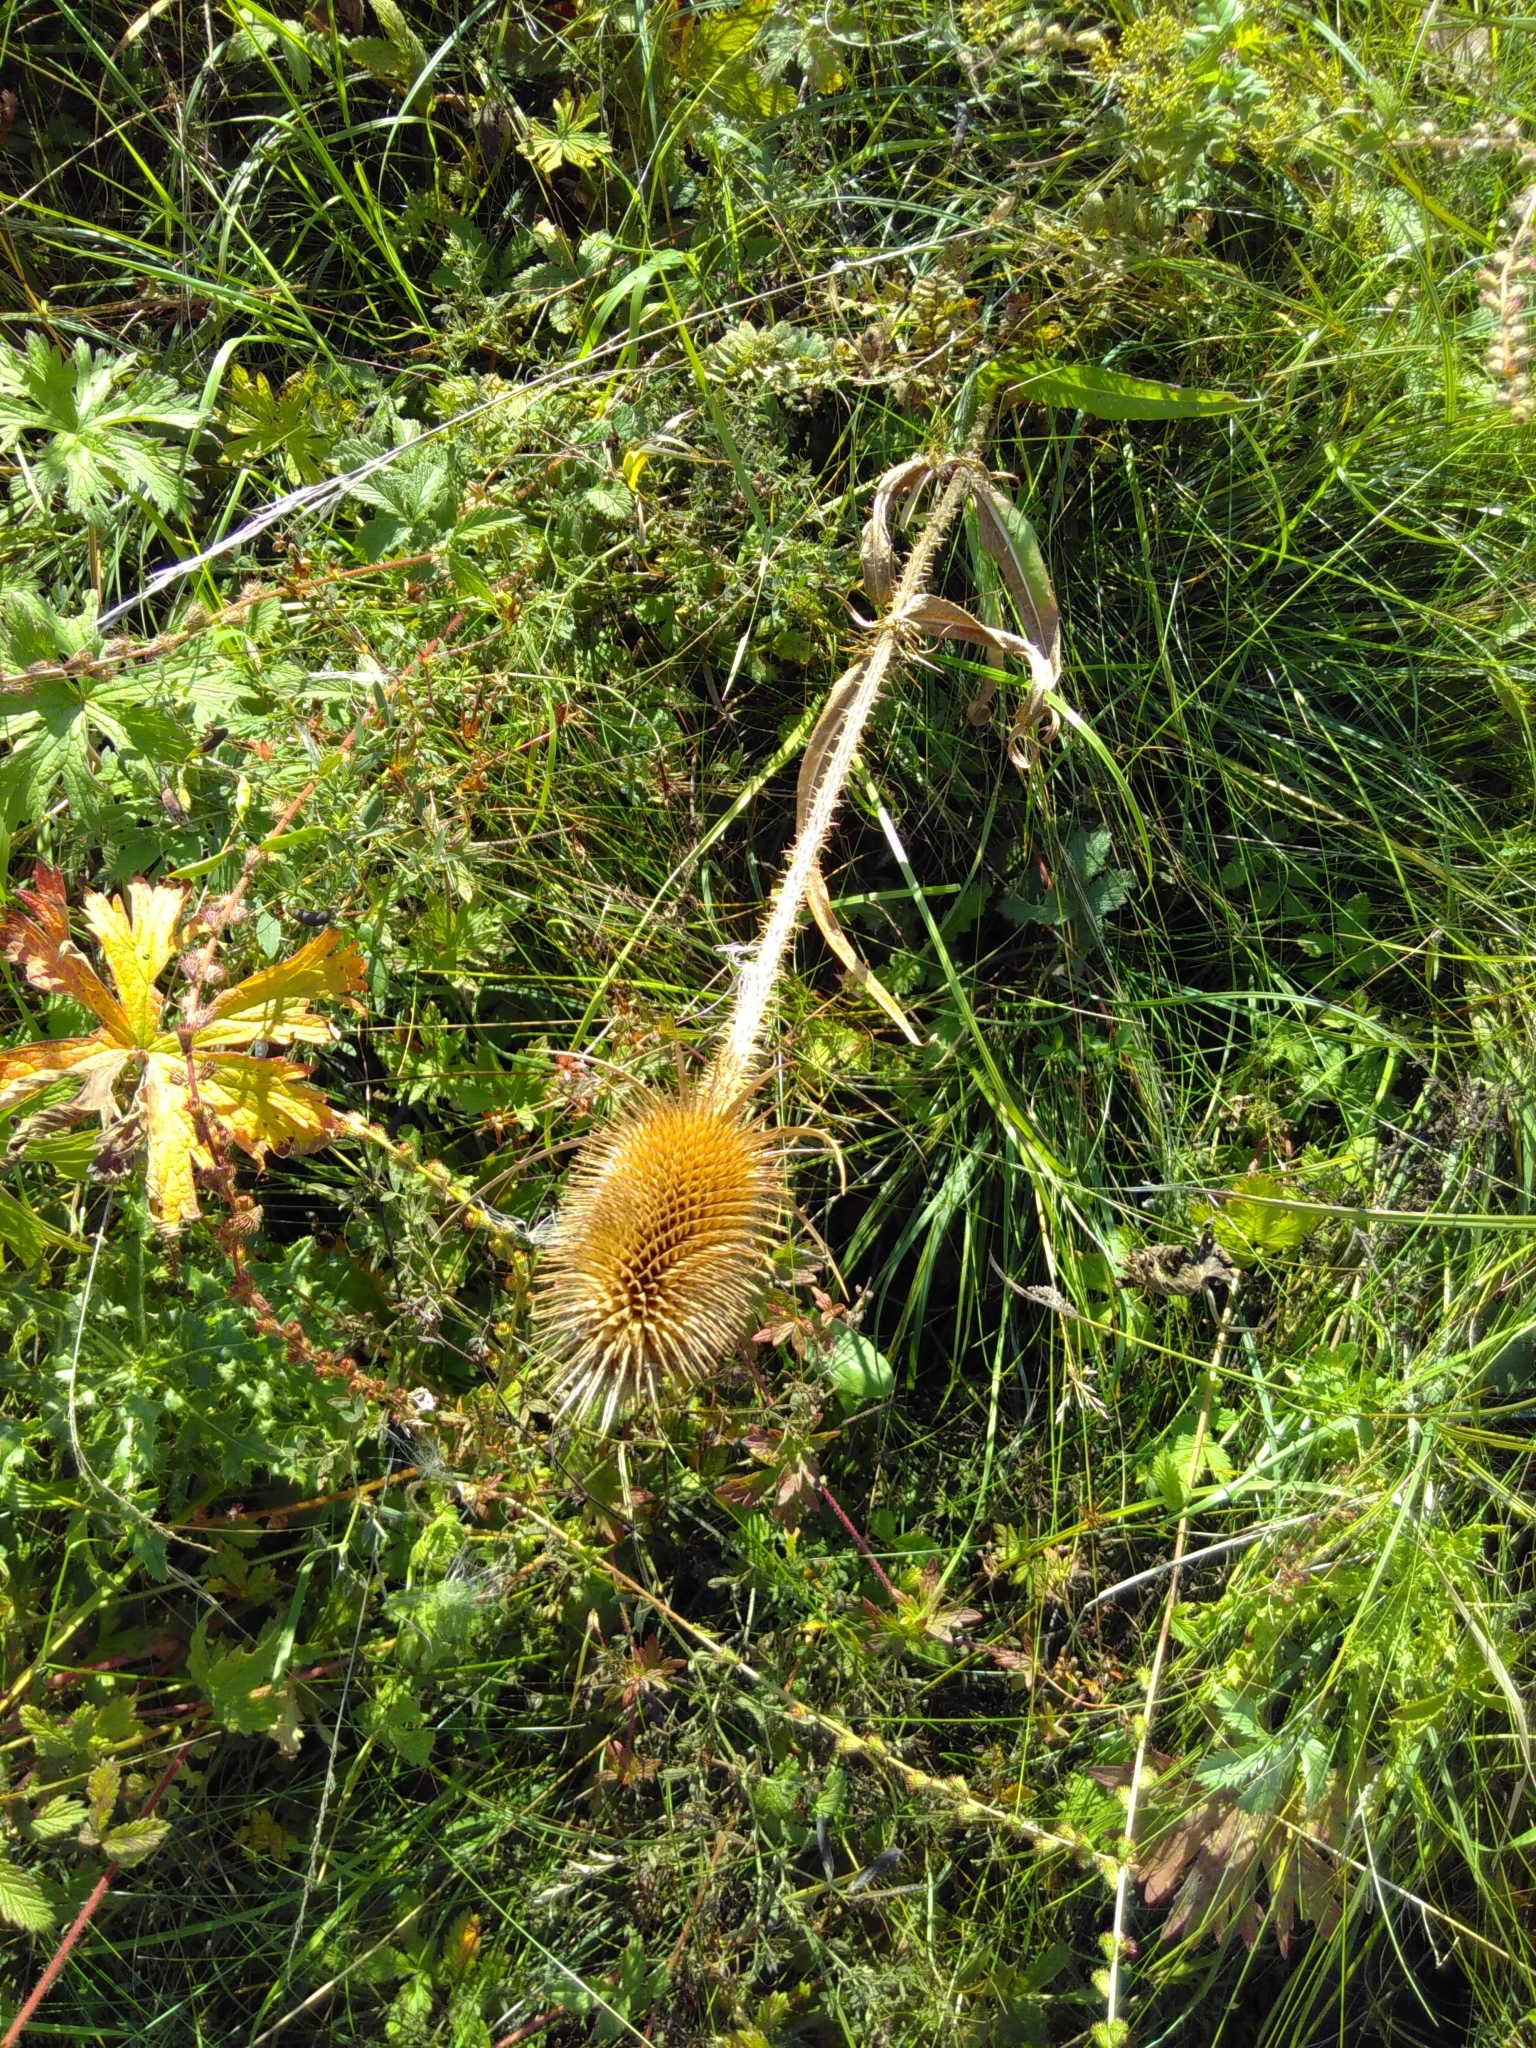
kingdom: Plantae
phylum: Tracheophyta
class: Magnoliopsida
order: Dipsacales
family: Caprifoliaceae
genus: Dipsacus
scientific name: Dipsacus fullonum
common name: Teasel
